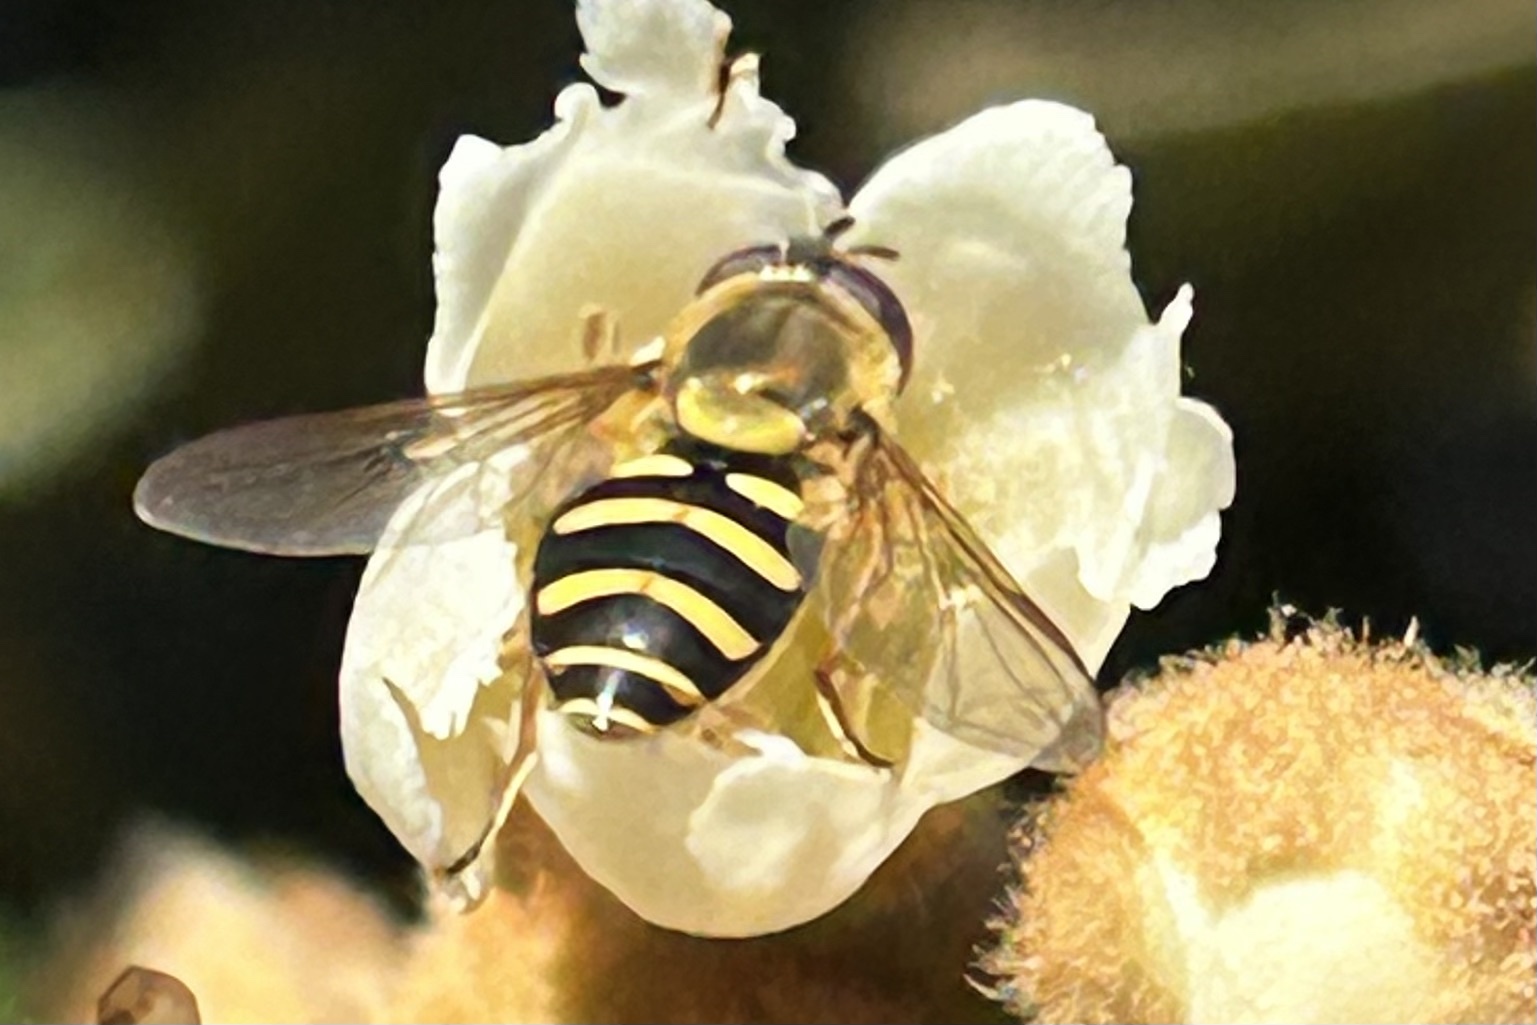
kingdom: Animalia
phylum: Arthropoda
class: Insecta
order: Diptera
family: Syrphidae
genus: Syrphus
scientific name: Syrphus opinator
